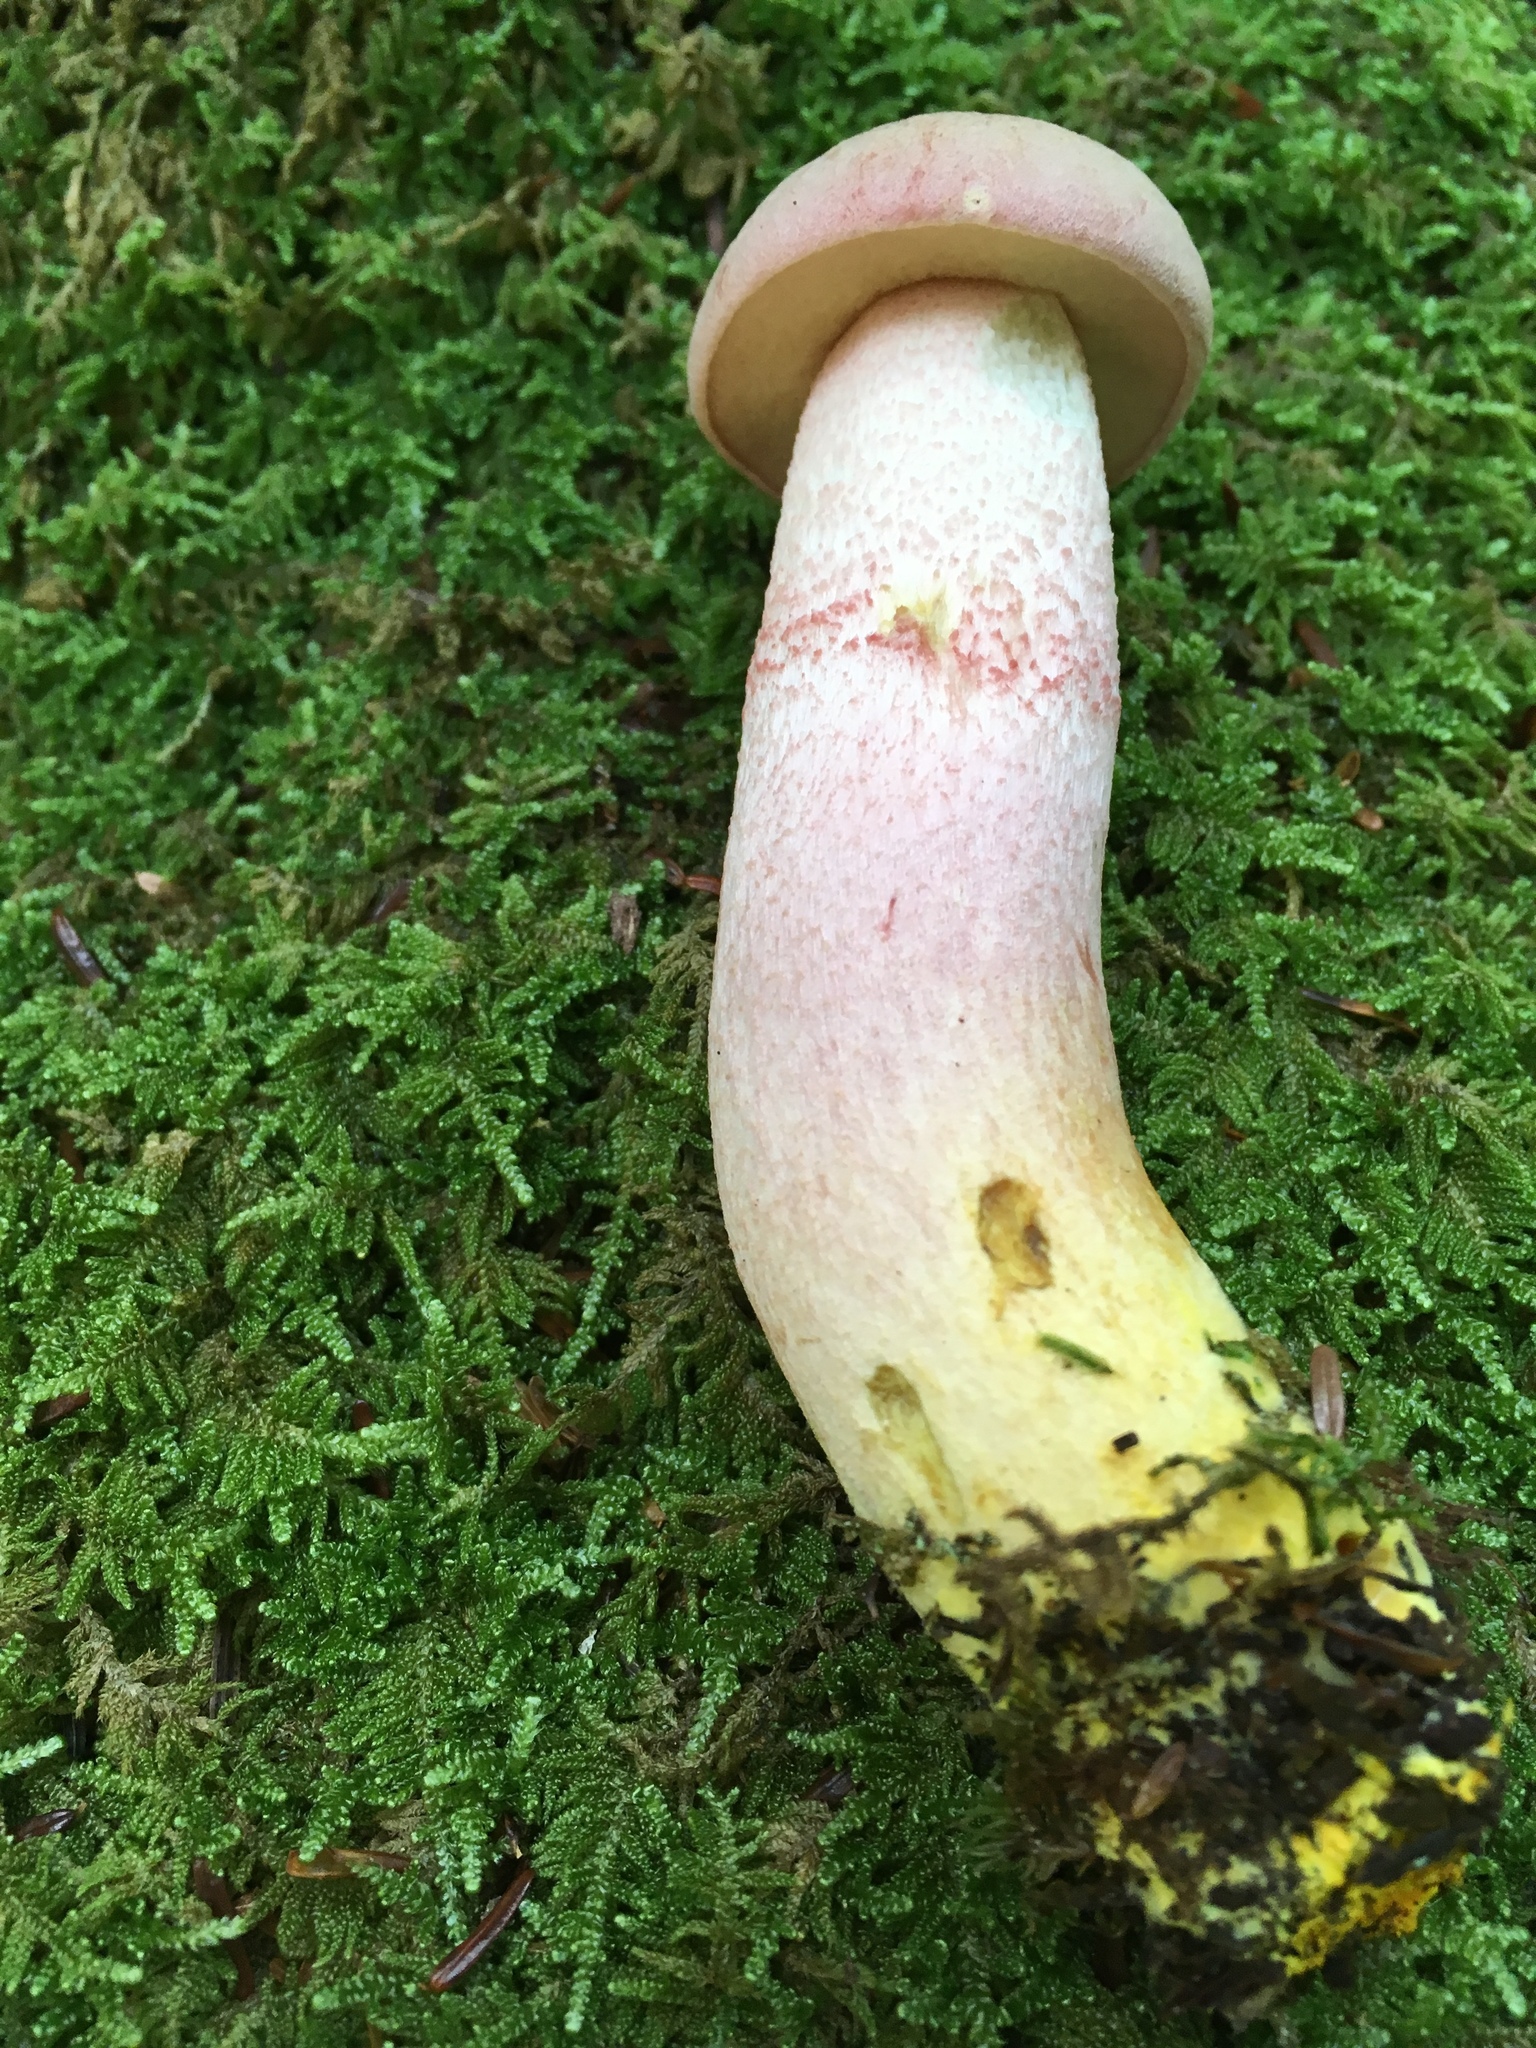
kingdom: Fungi
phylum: Basidiomycota
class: Agaricomycetes
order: Boletales
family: Boletaceae
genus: Harrya
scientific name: Harrya chromipes
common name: Chrome-footed bolete
